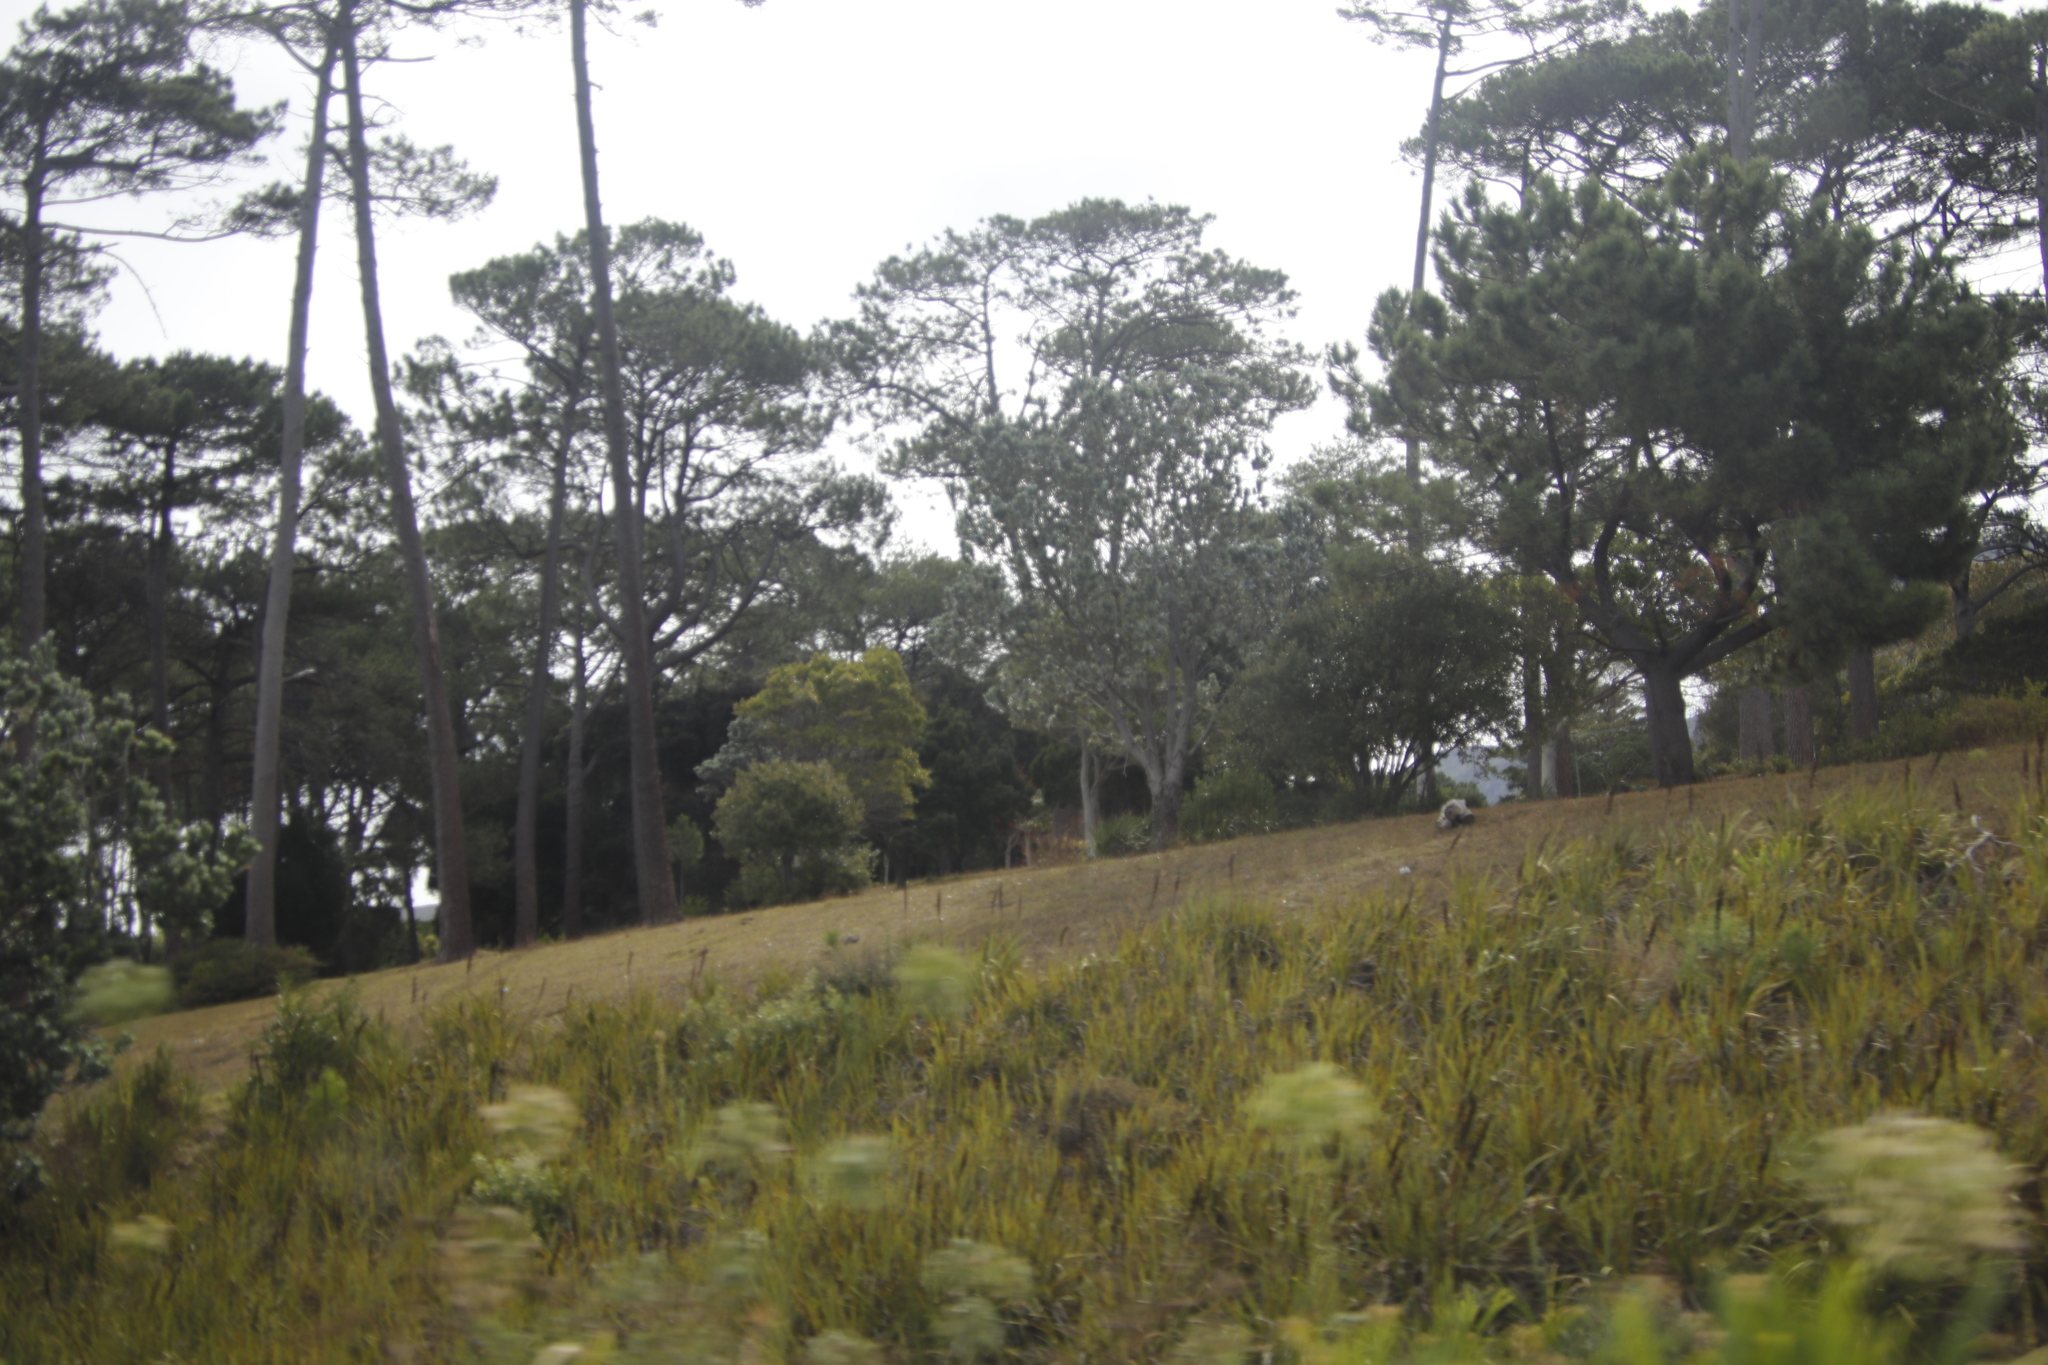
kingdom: Plantae
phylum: Tracheophyta
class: Pinopsida
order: Pinales
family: Pinaceae
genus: Pinus
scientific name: Pinus pinaster
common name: Maritime pine
